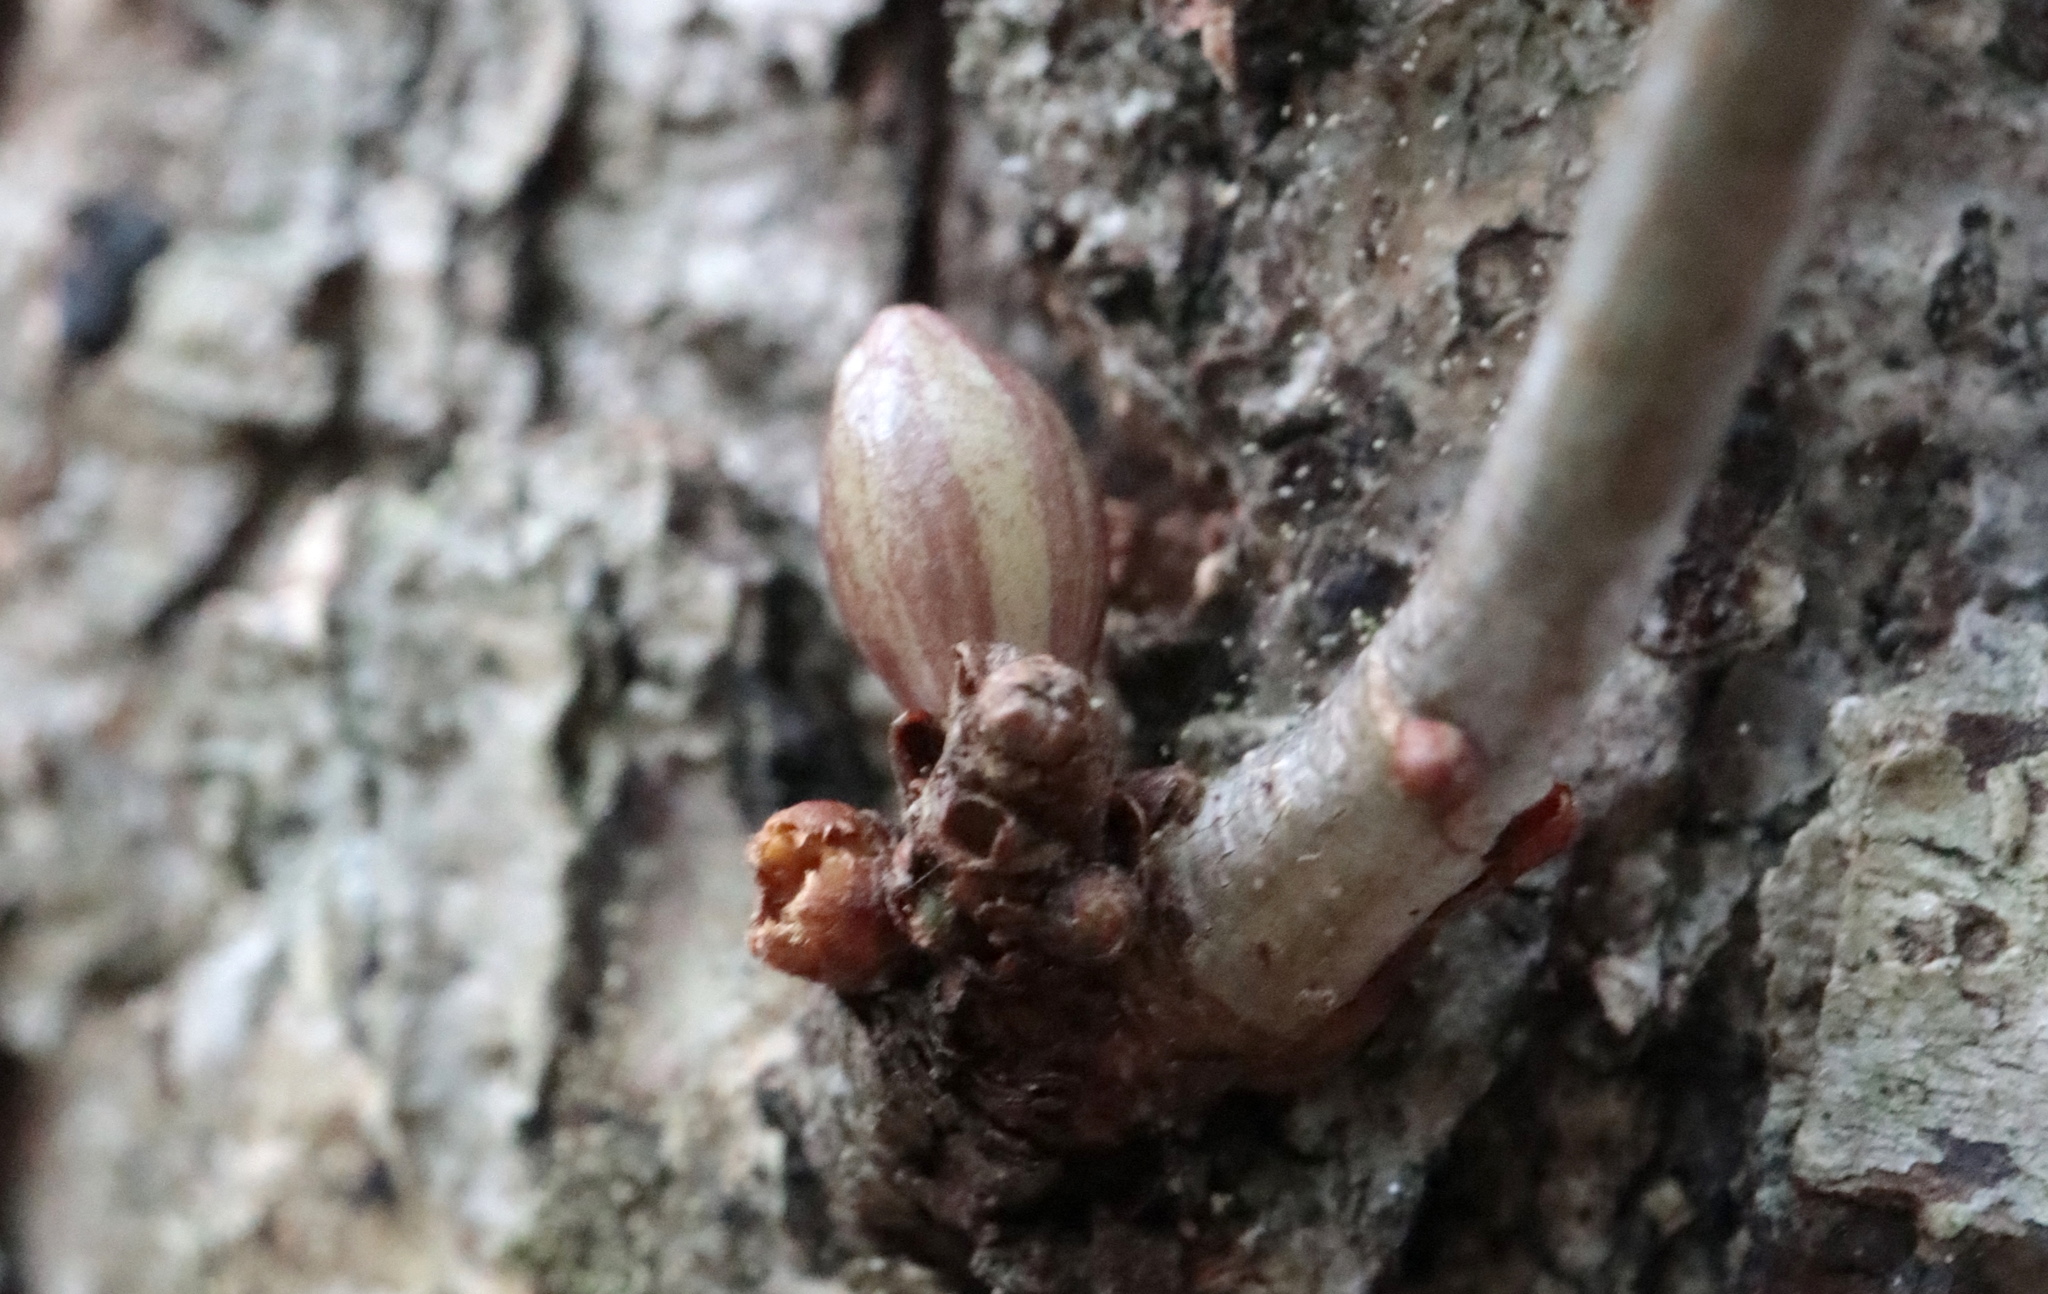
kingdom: Animalia
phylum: Arthropoda
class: Insecta
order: Hymenoptera
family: Cynipidae
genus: Andricus
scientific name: Andricus
